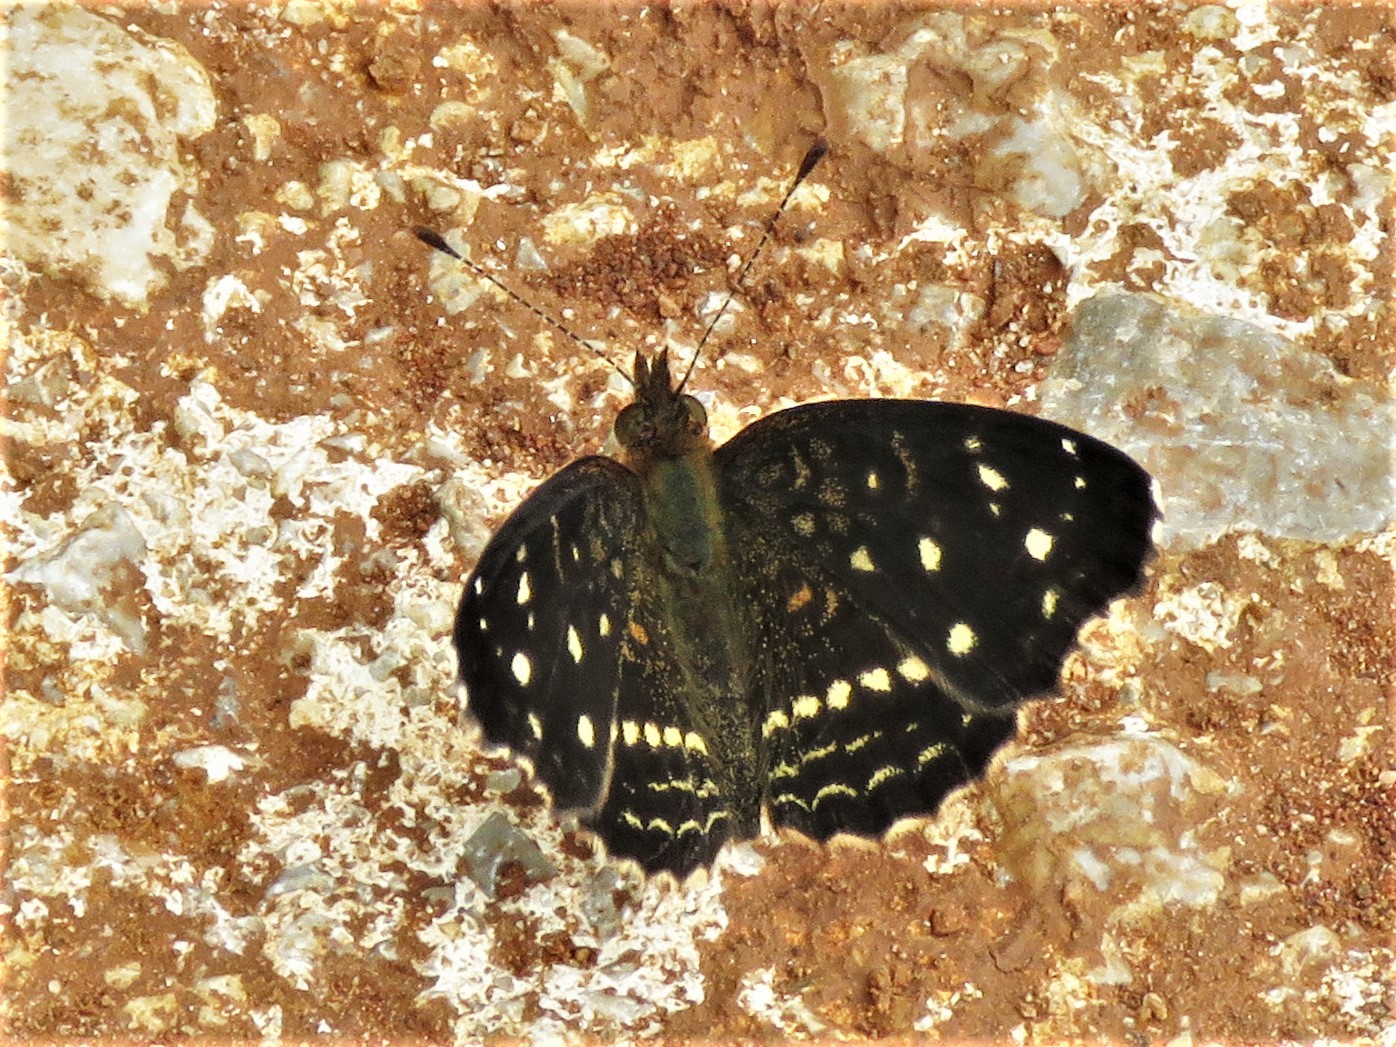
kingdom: Animalia
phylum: Arthropoda
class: Insecta
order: Lepidoptera
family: Nymphalidae
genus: Anthanassa
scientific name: Anthanassa texana
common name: Texan crescent
